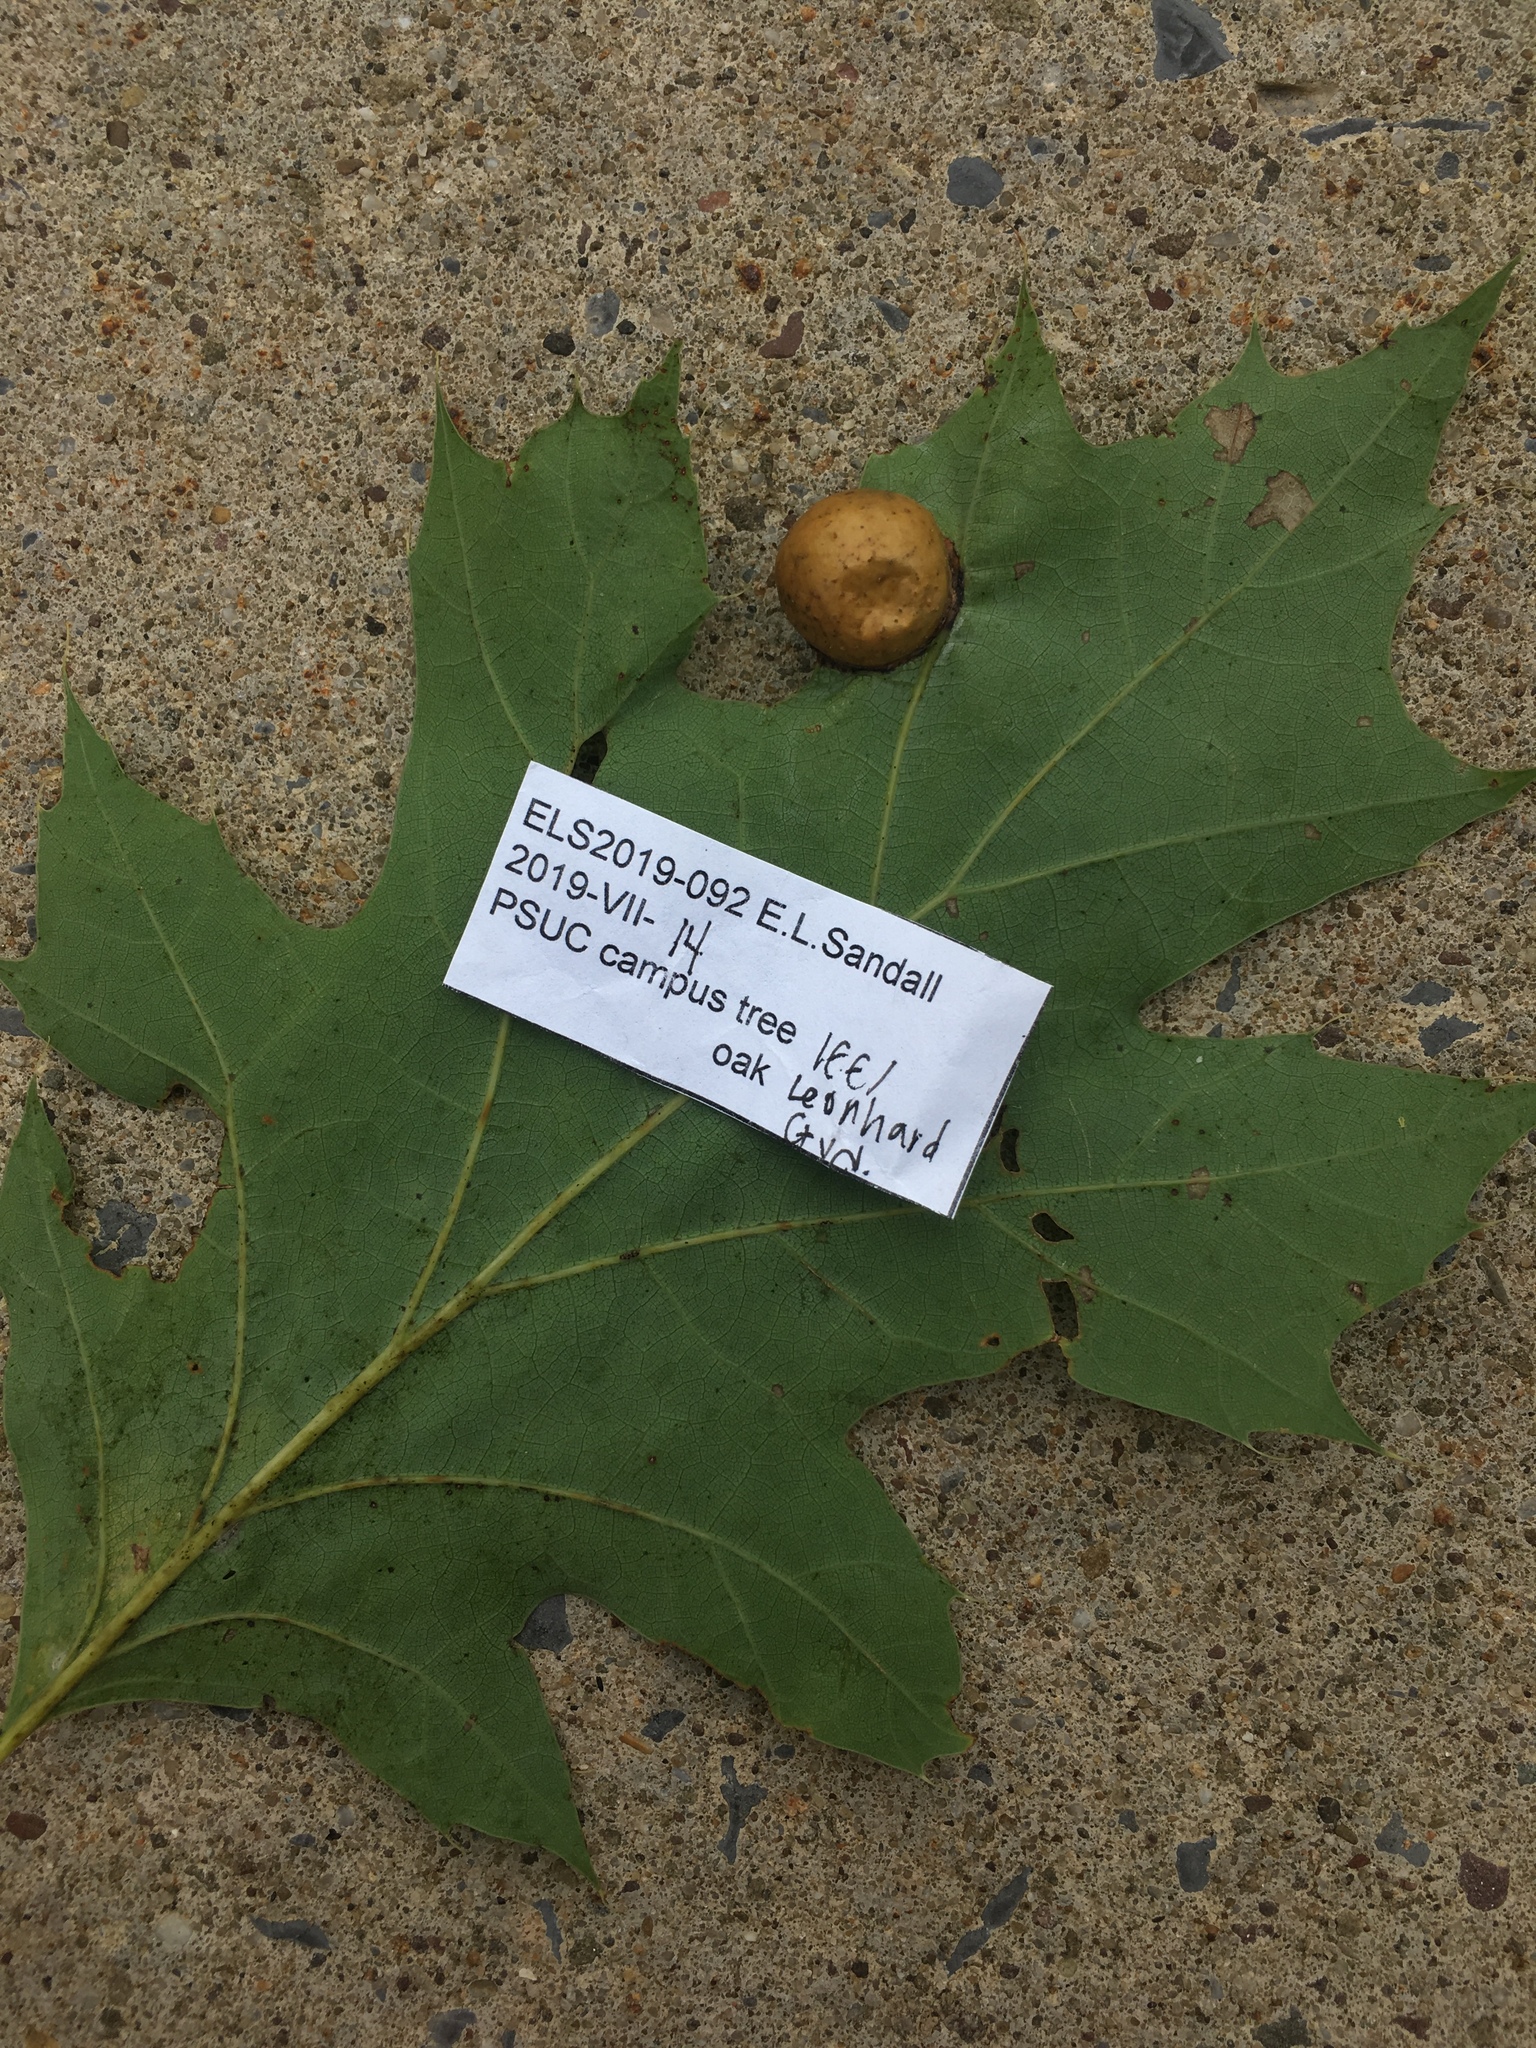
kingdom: Animalia
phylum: Arthropoda
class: Insecta
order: Hymenoptera
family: Cynipidae
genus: Amphibolips
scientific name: Amphibolips
